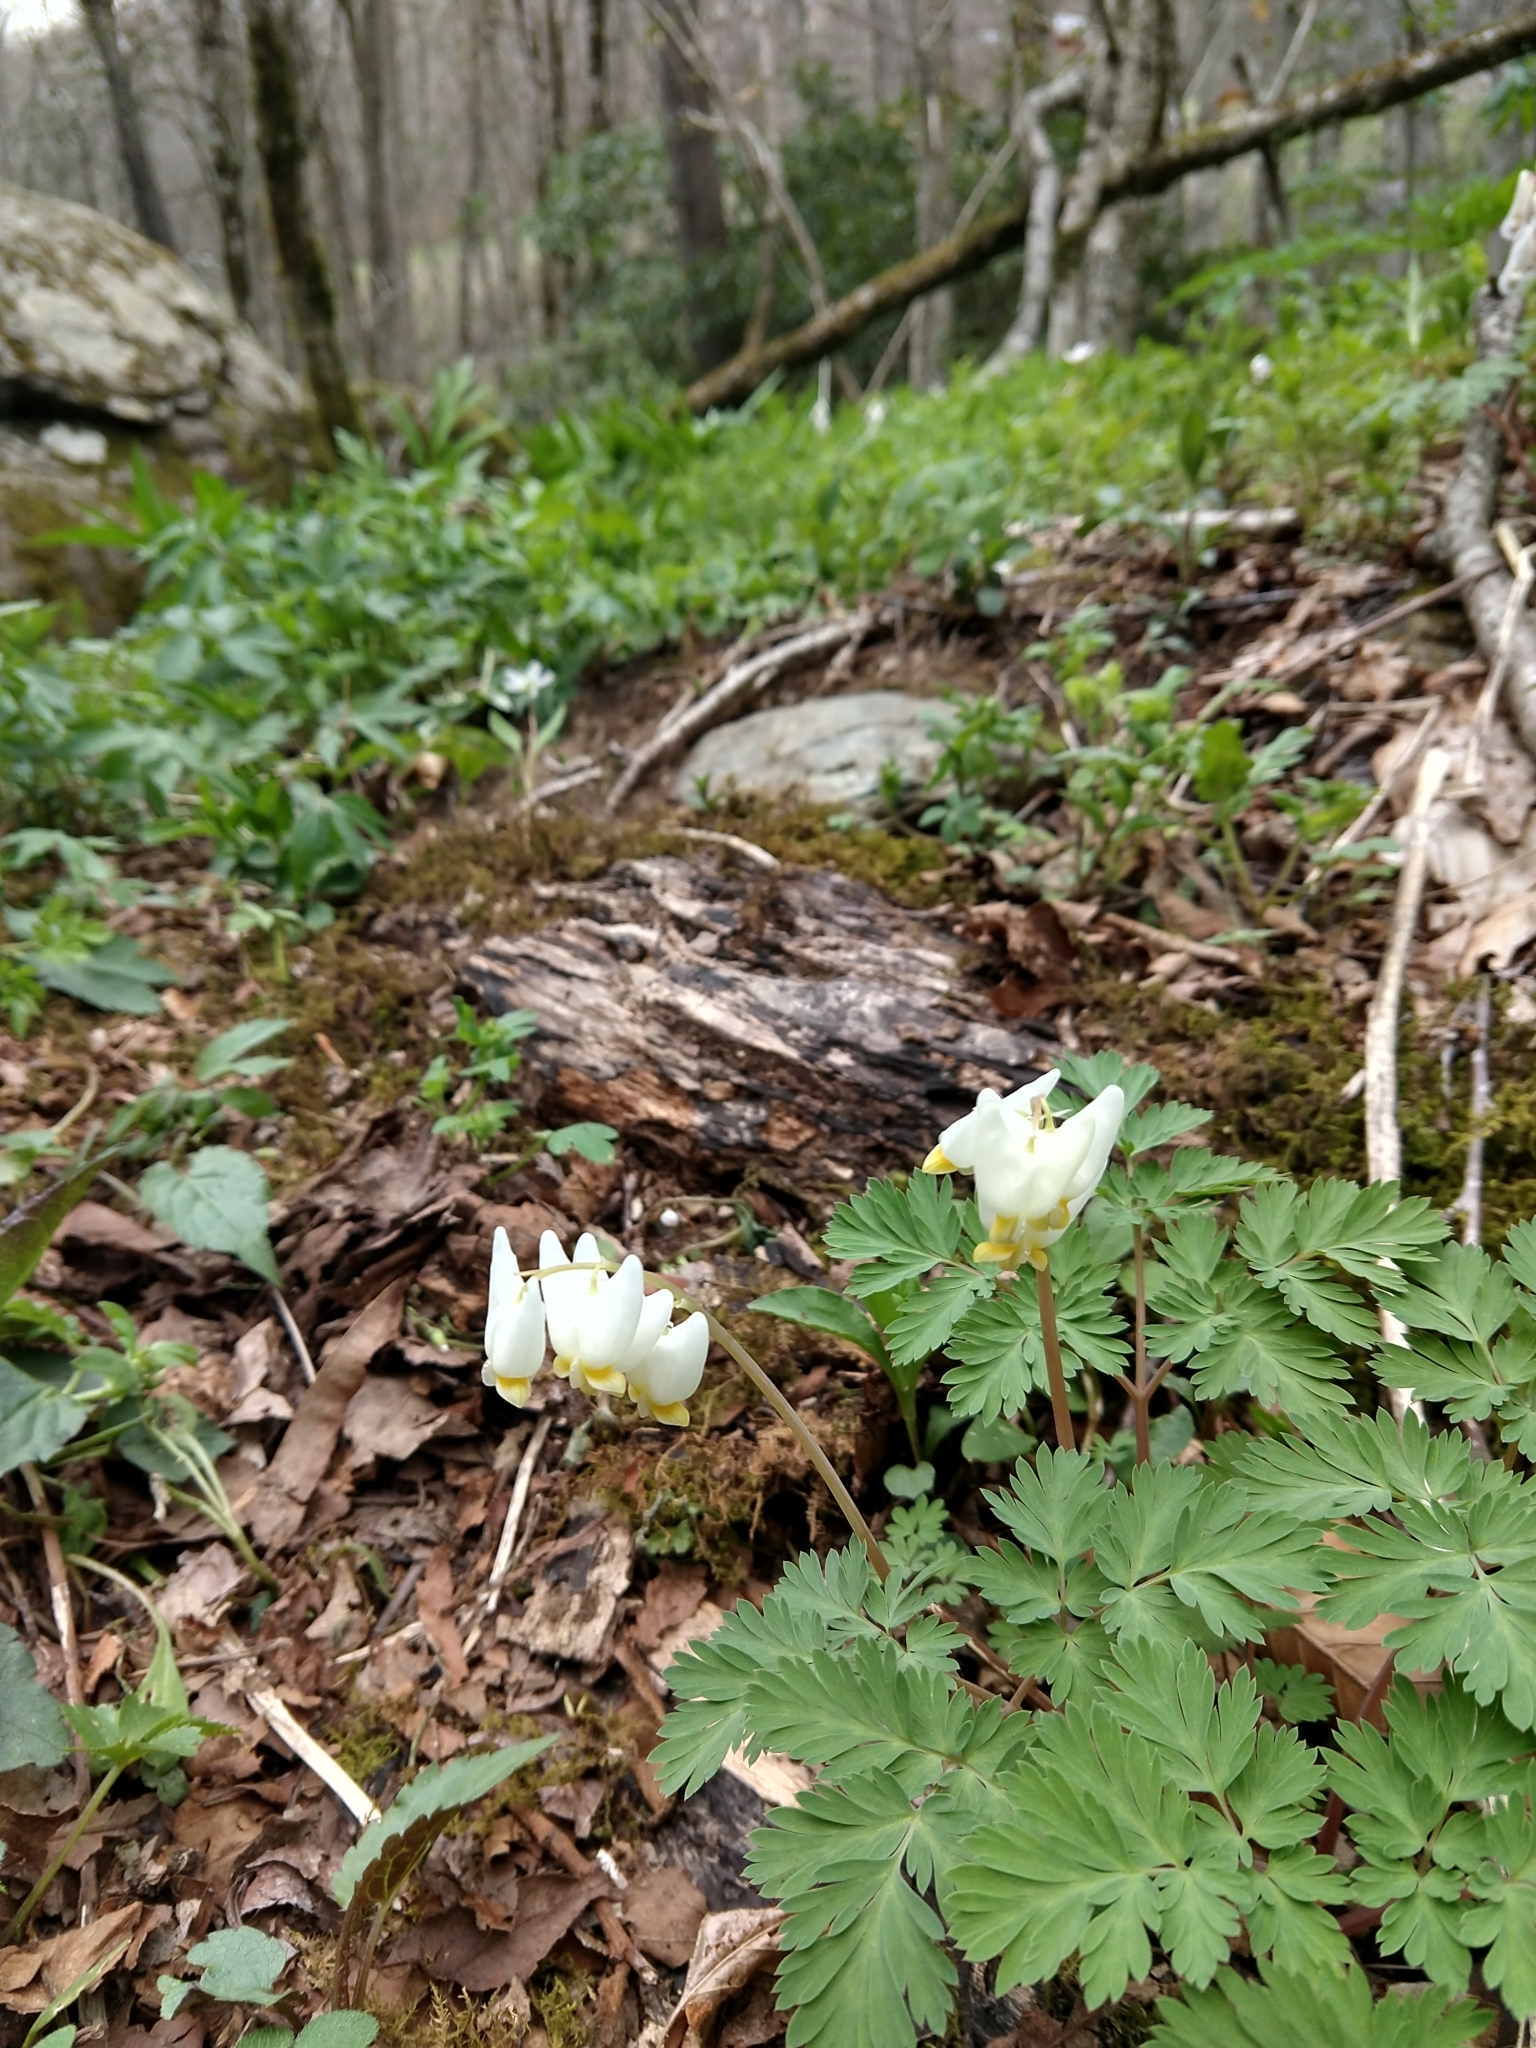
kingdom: Plantae
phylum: Tracheophyta
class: Magnoliopsida
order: Ranunculales
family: Papaveraceae
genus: Dicentra
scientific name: Dicentra cucullaria
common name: Dutchman's breeches
